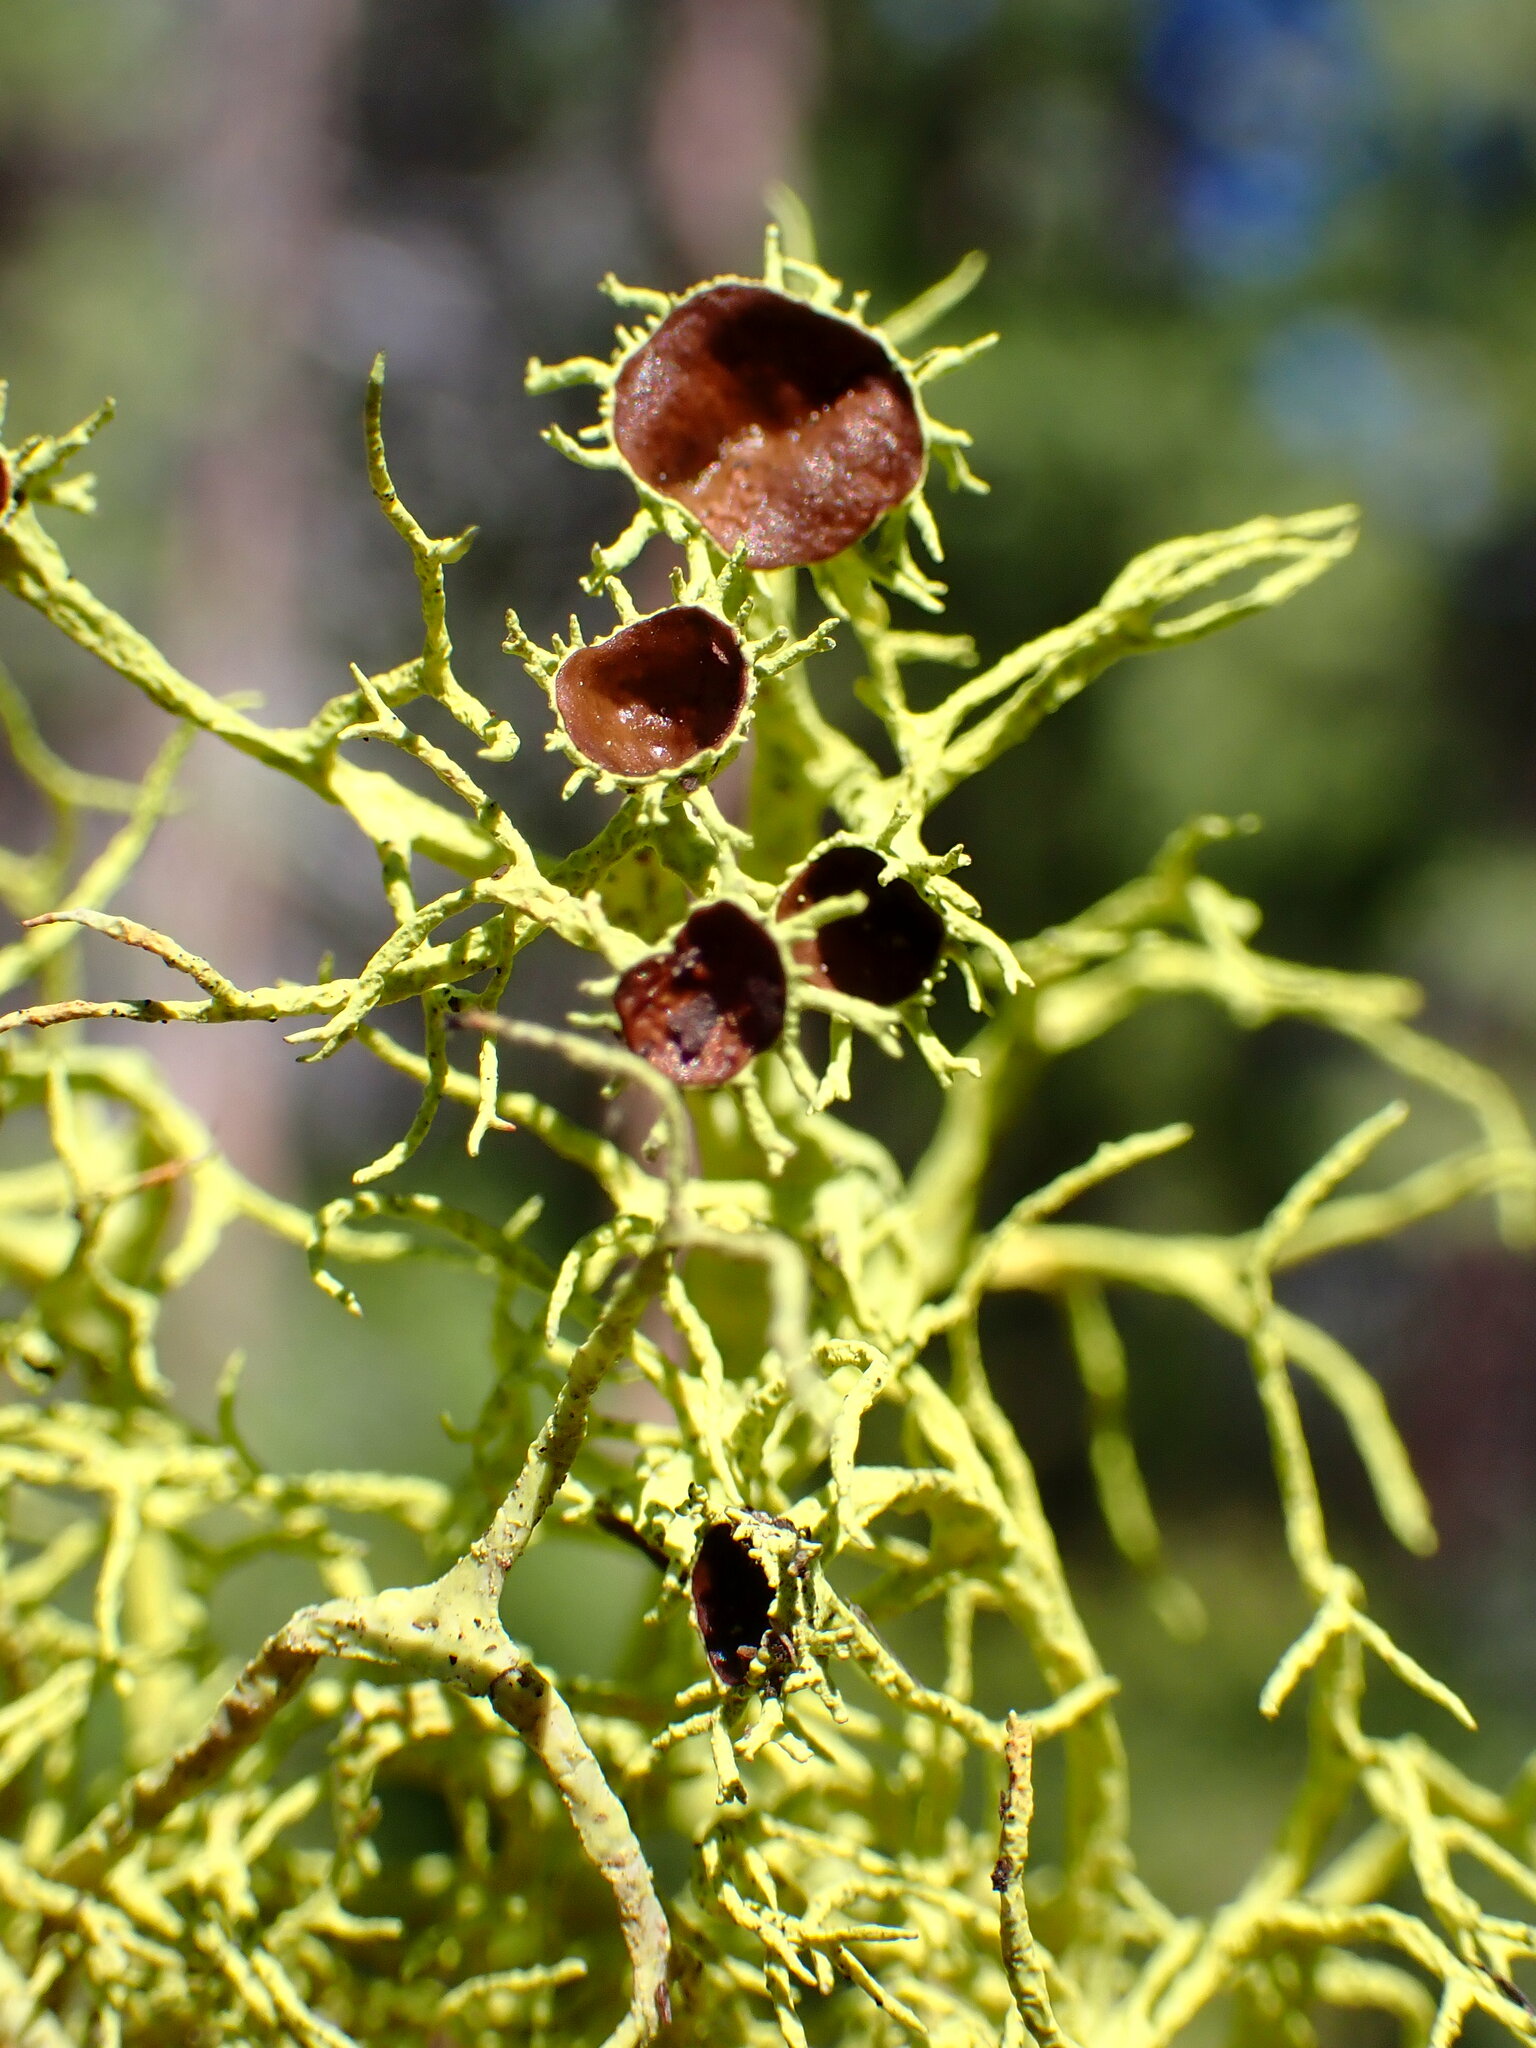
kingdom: Fungi
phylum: Ascomycota
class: Lecanoromycetes
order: Lecanorales
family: Parmeliaceae
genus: Letharia
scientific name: Letharia columbiana
